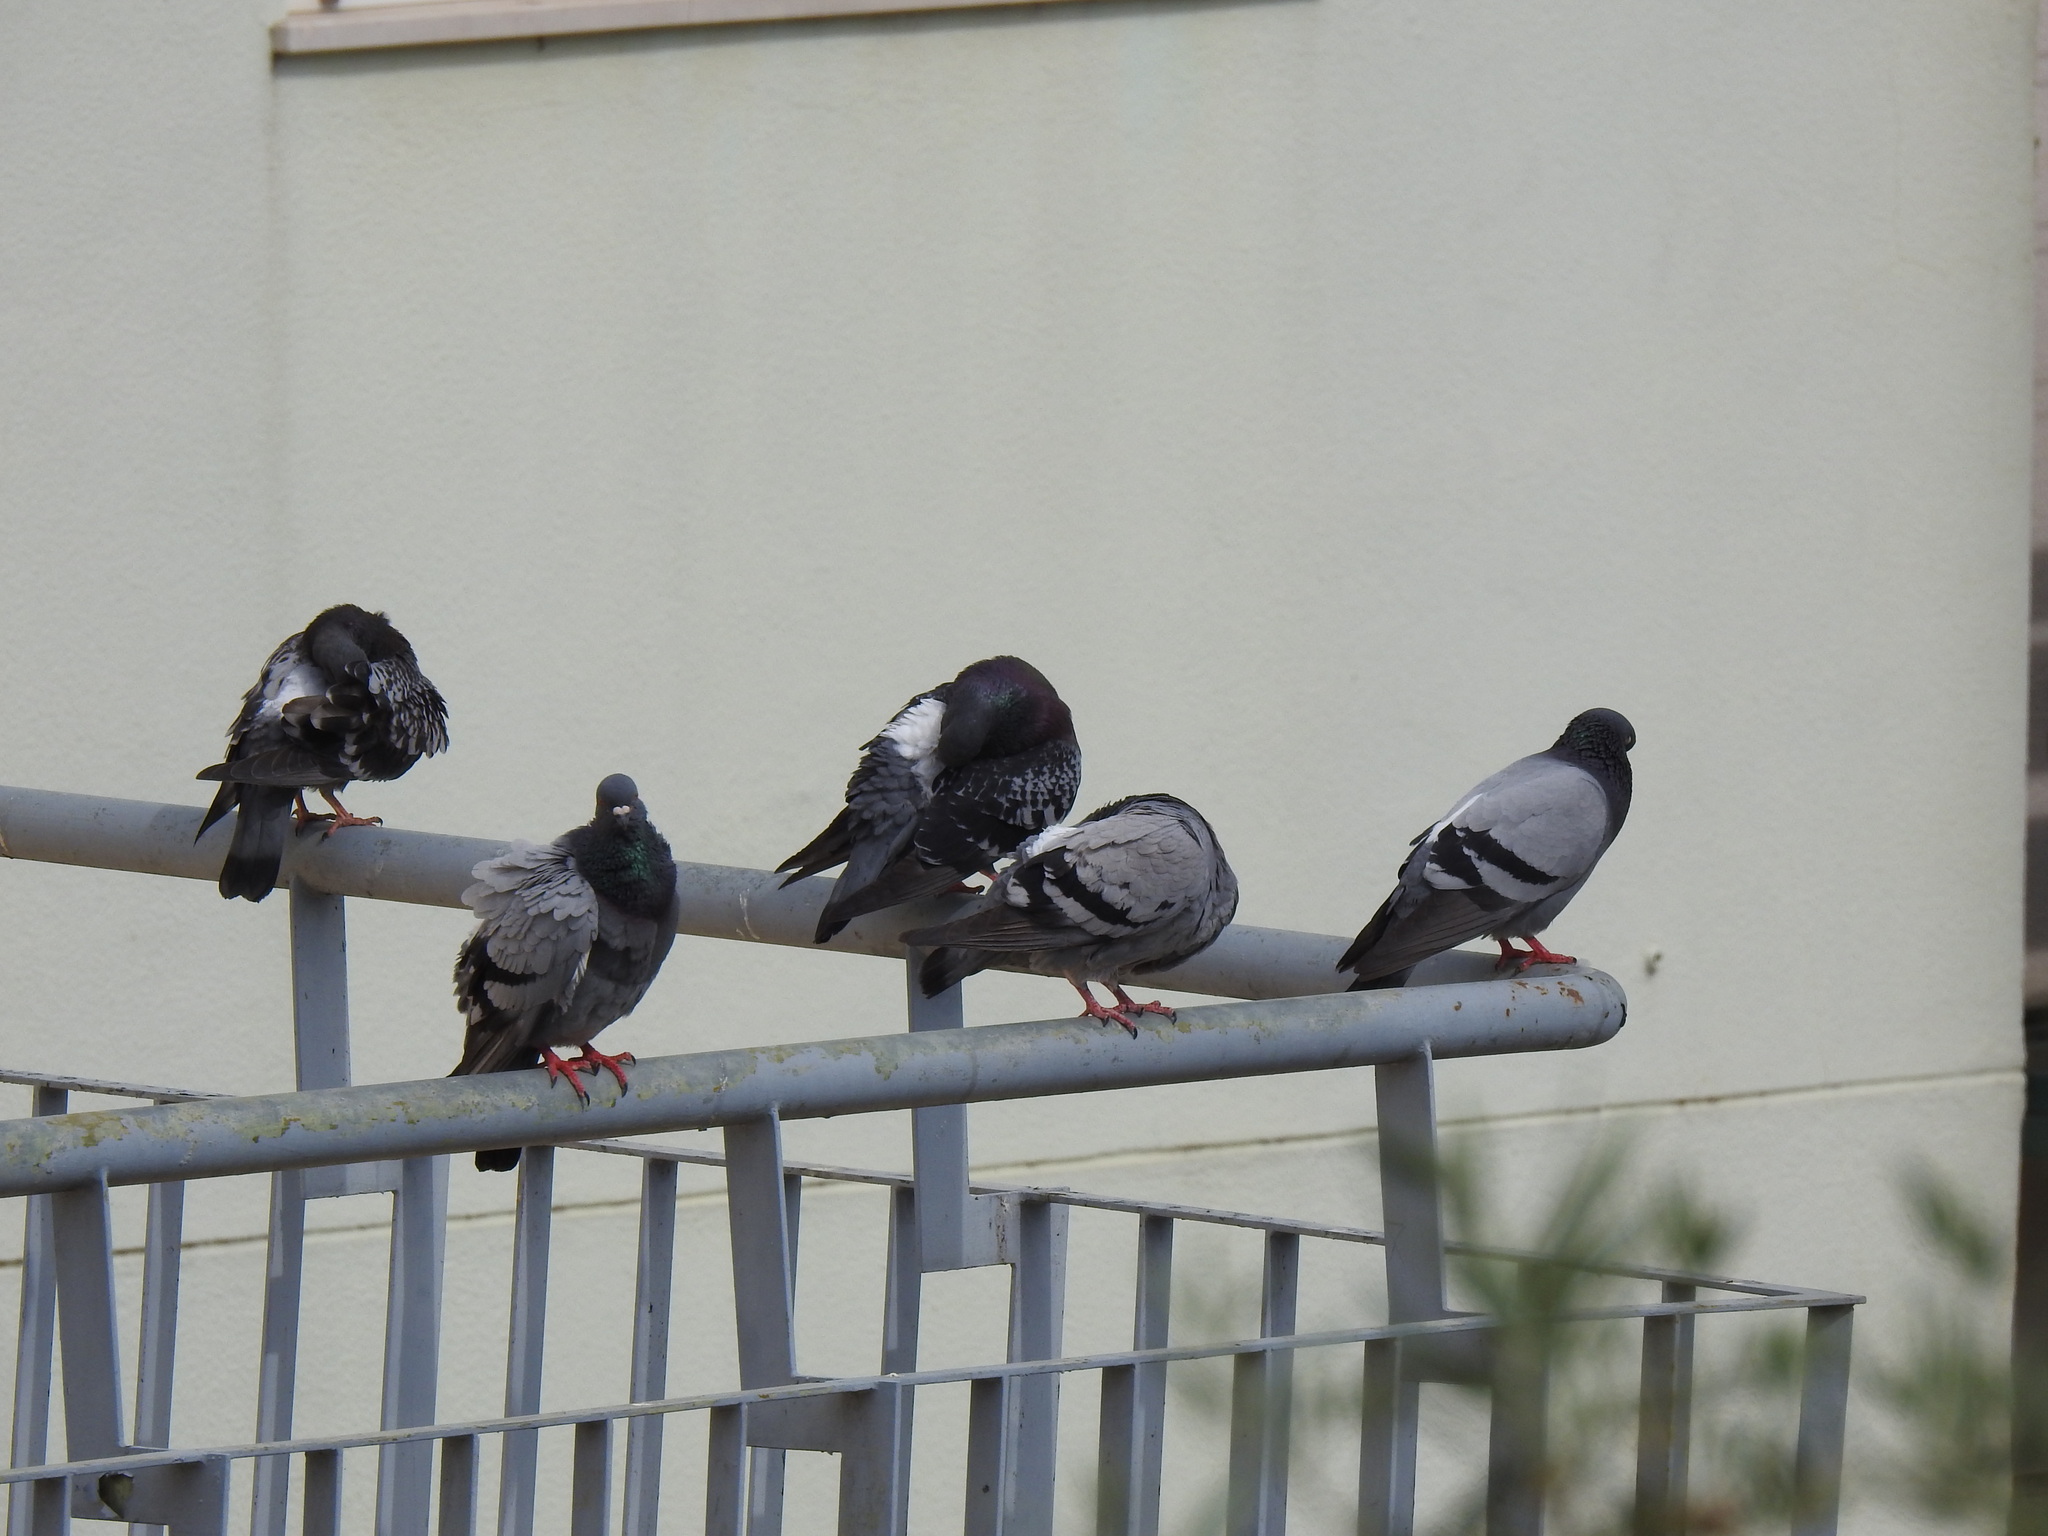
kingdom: Animalia
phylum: Chordata
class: Aves
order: Columbiformes
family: Columbidae
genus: Columba
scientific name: Columba livia
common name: Rock pigeon
